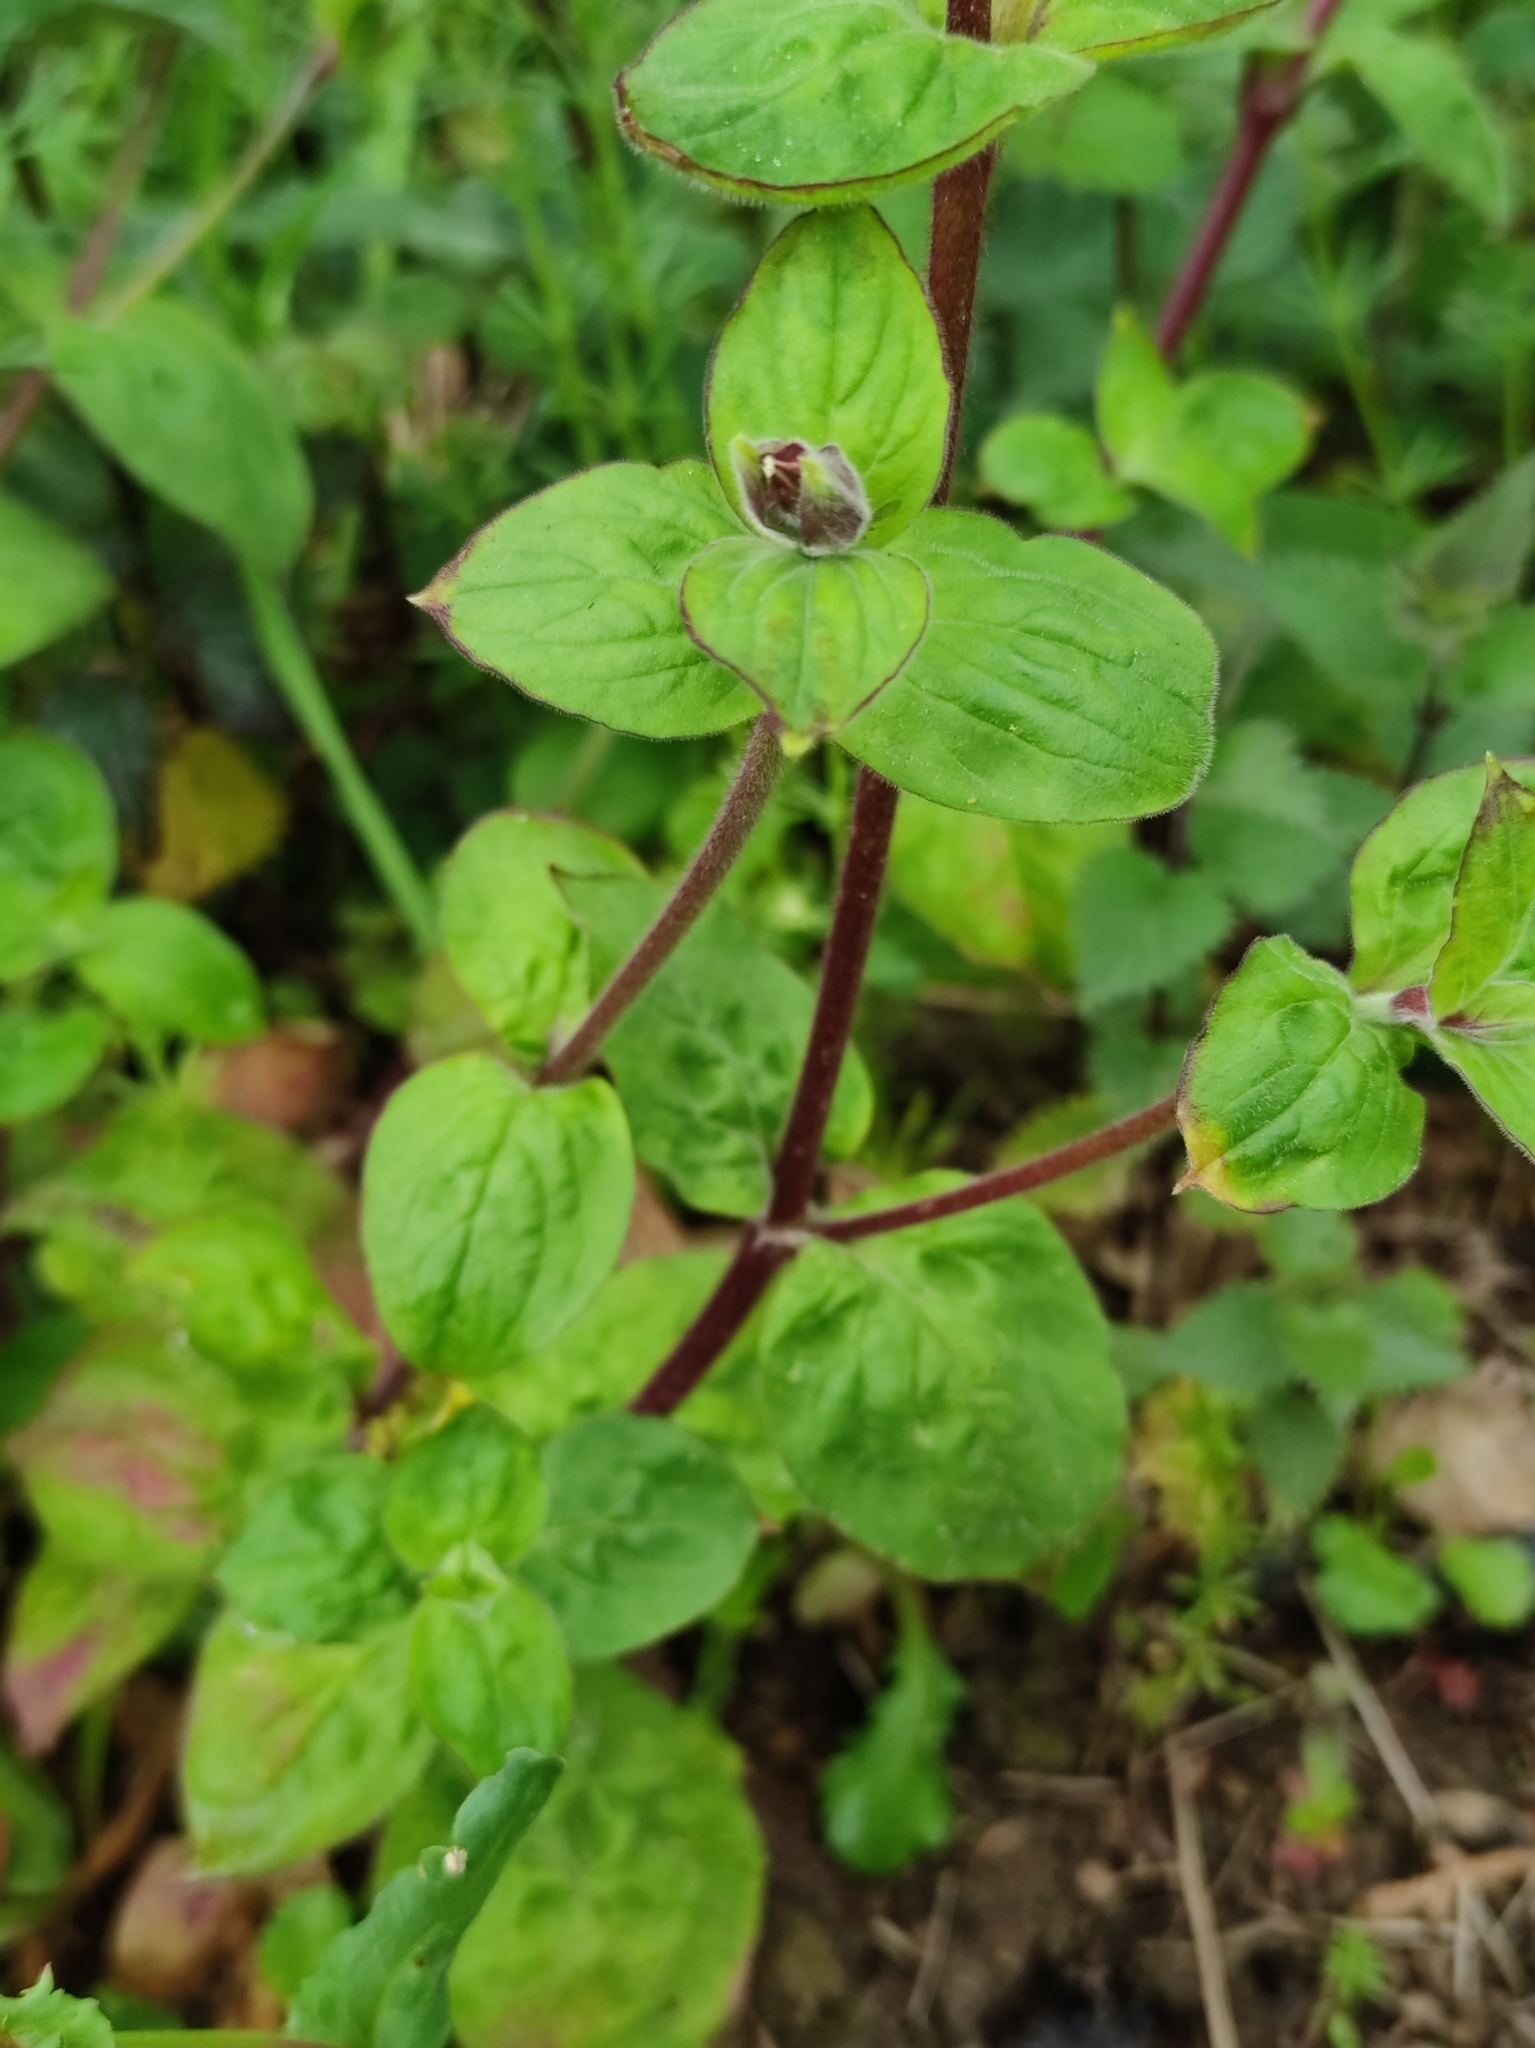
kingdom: Plantae
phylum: Tracheophyta
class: Magnoliopsida
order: Caryophyllales
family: Caryophyllaceae
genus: Silene
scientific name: Silene dioica
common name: Red campion
